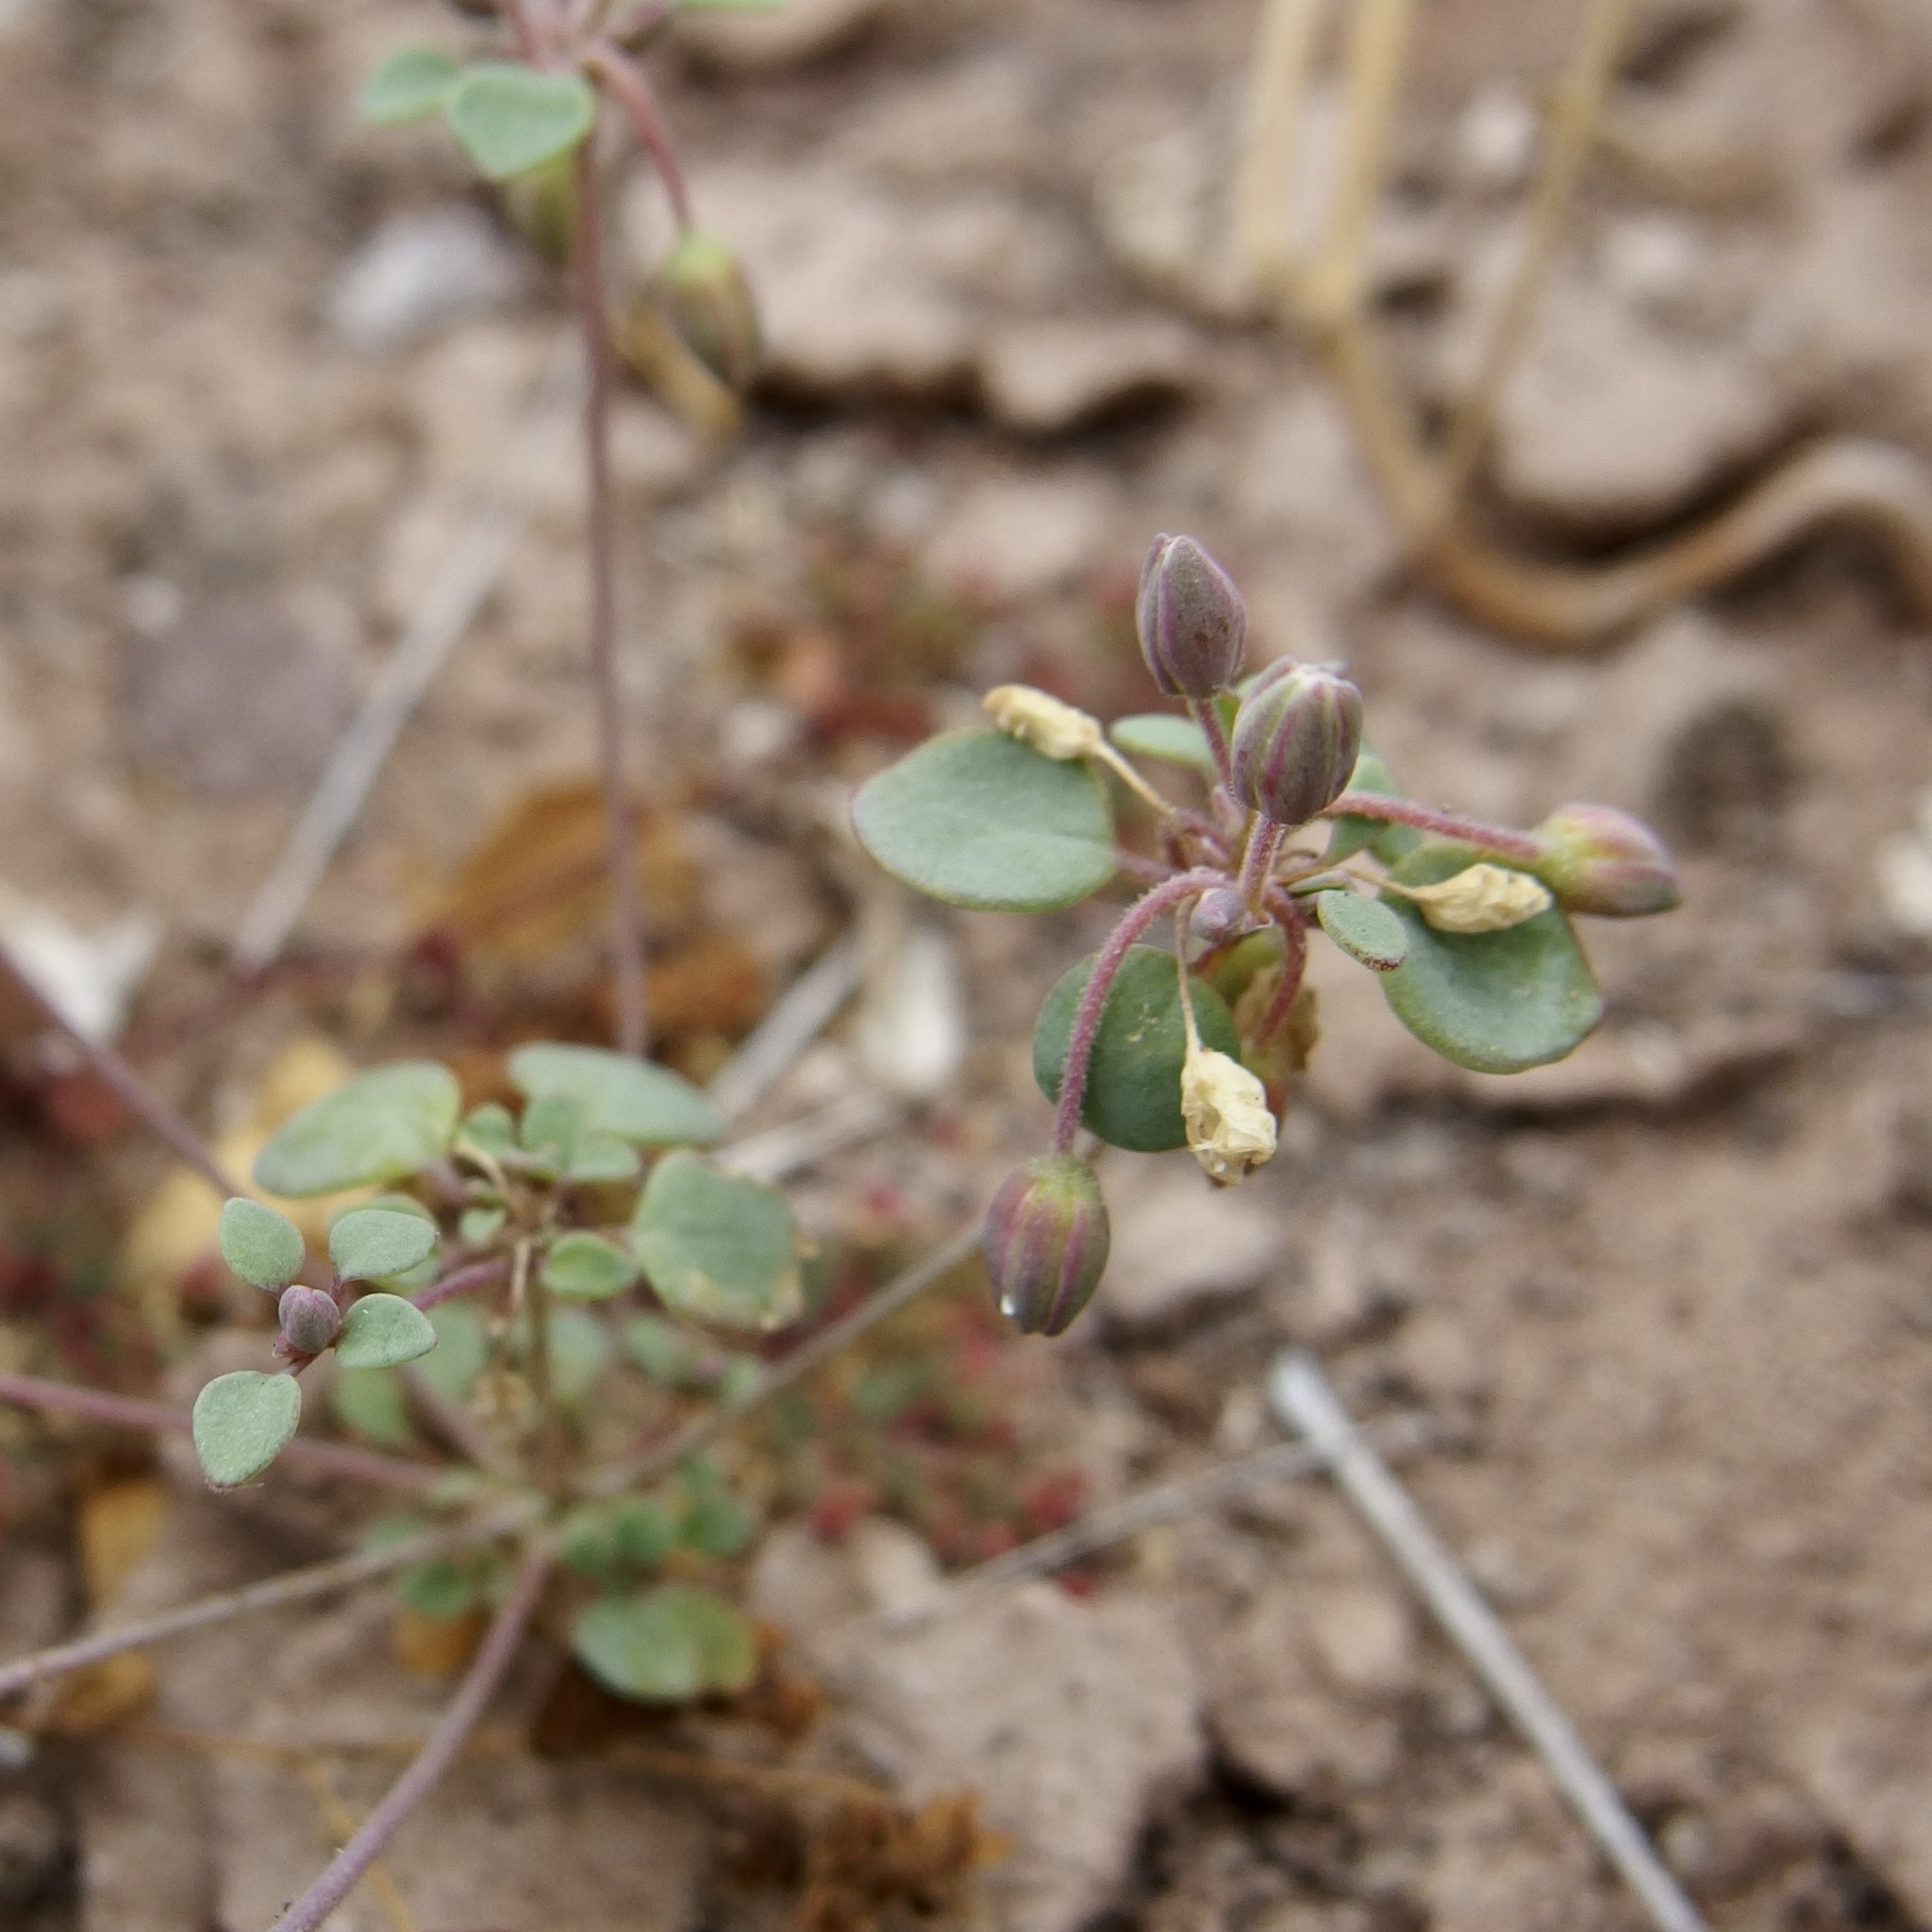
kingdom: Plantae
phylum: Tracheophyta
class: Magnoliopsida
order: Caryophyllales
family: Caryophyllaceae
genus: Drymaria
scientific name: Drymaria holosteoides
